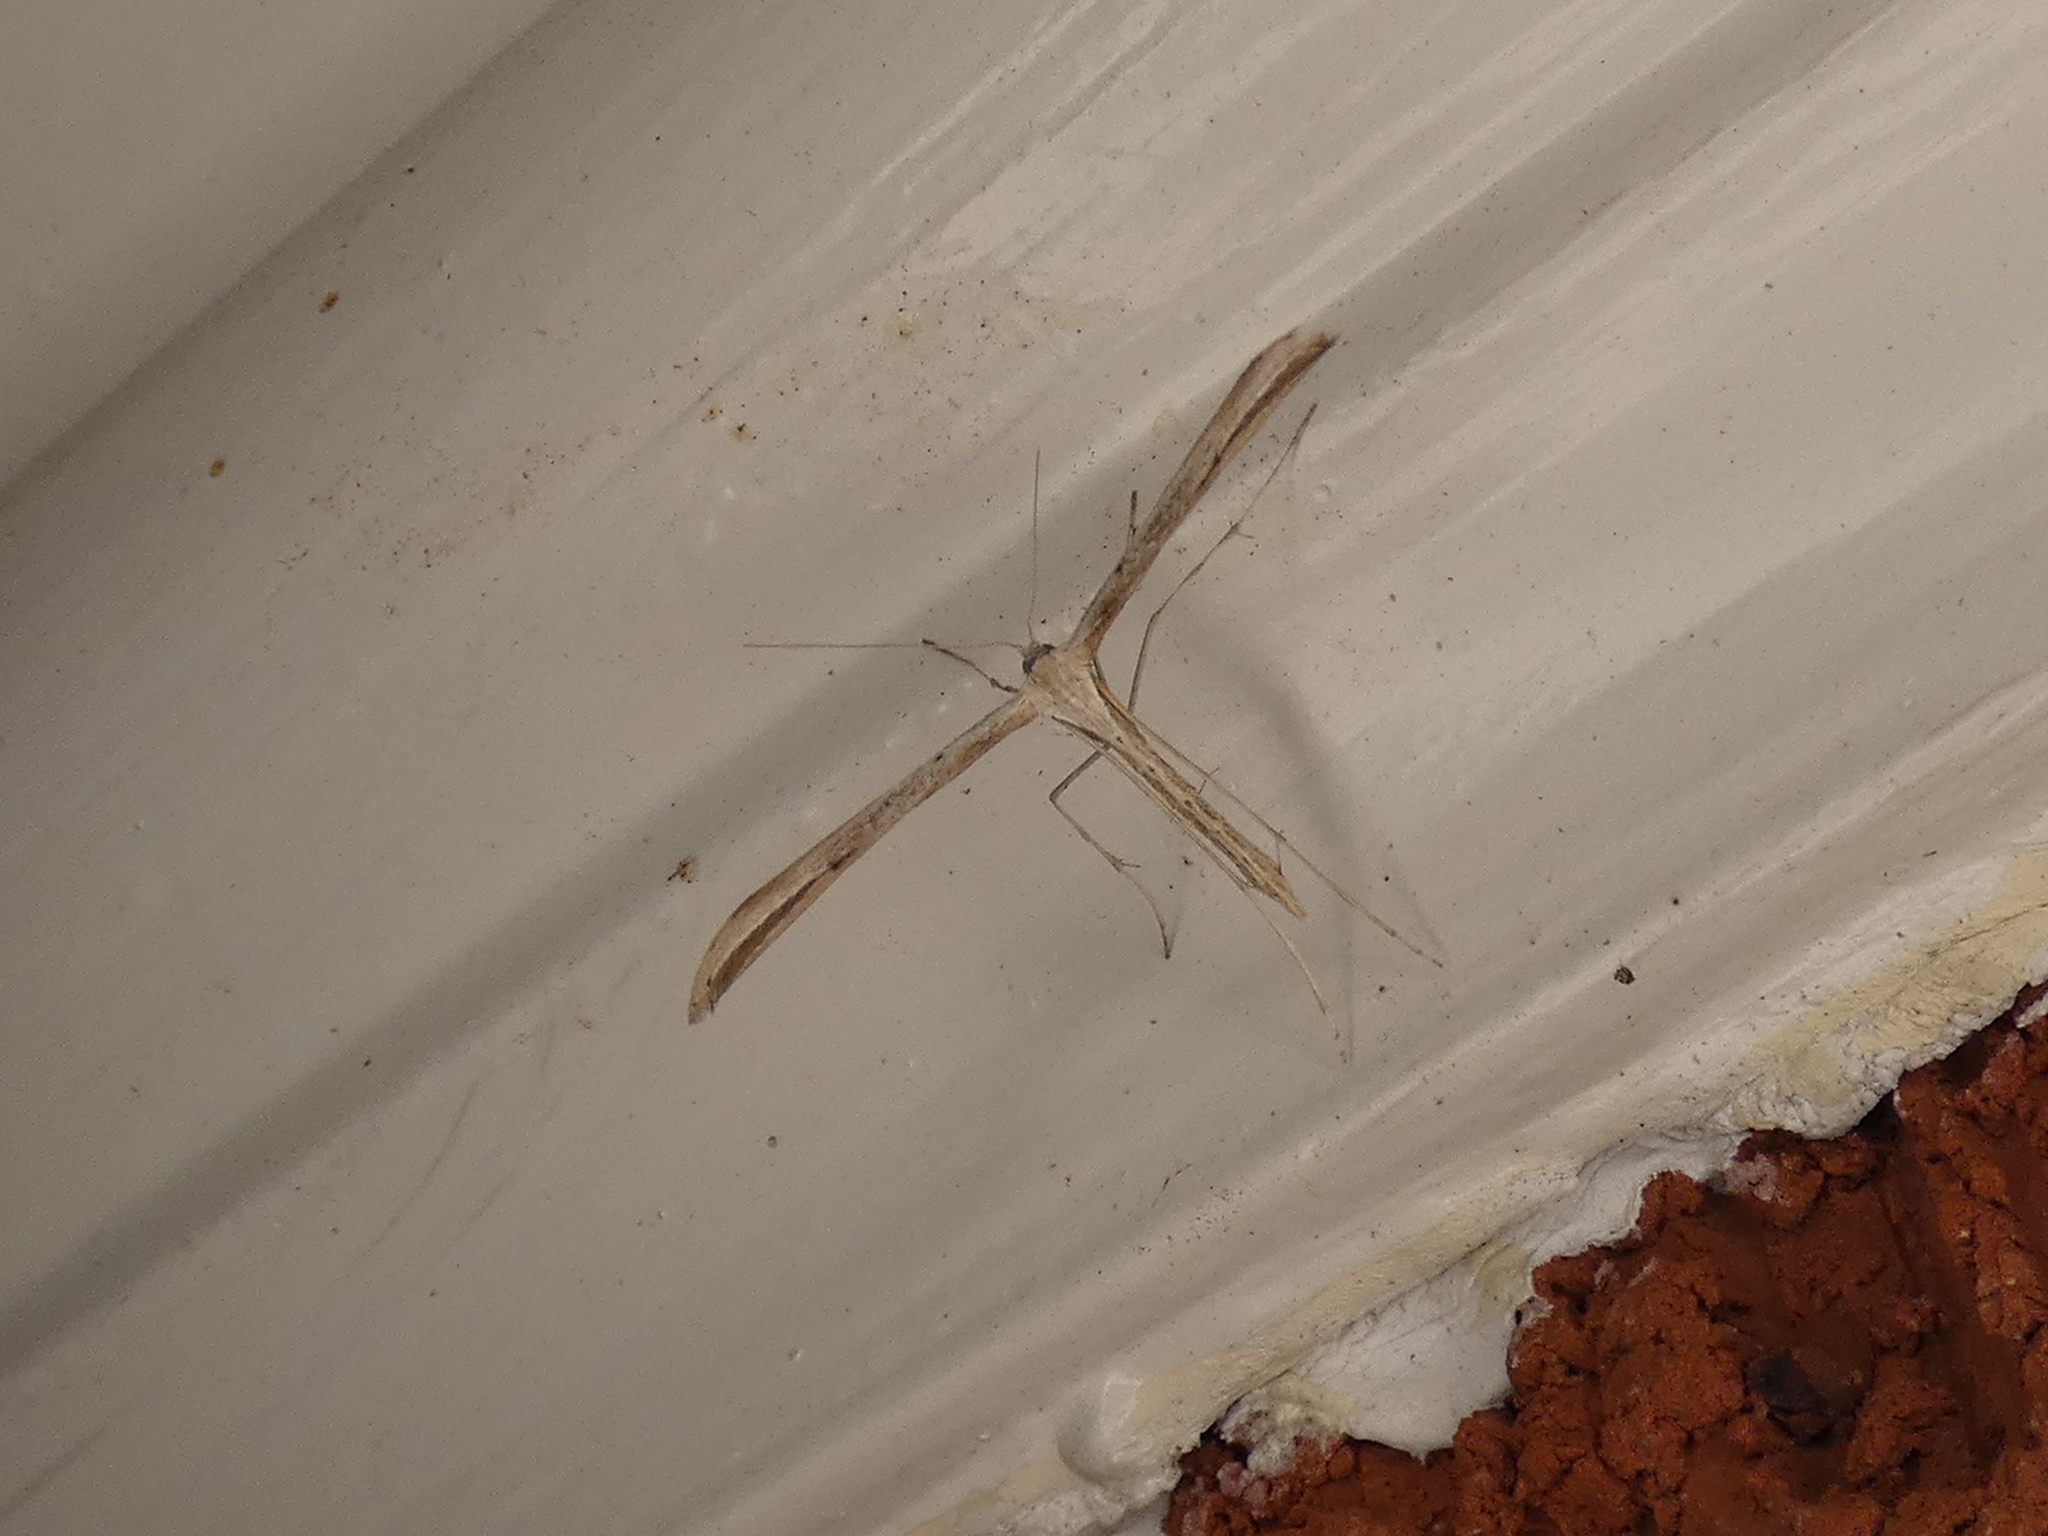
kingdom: Animalia
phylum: Arthropoda
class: Insecta
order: Lepidoptera
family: Pterophoridae
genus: Emmelina
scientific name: Emmelina monodactyla
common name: Common plume
